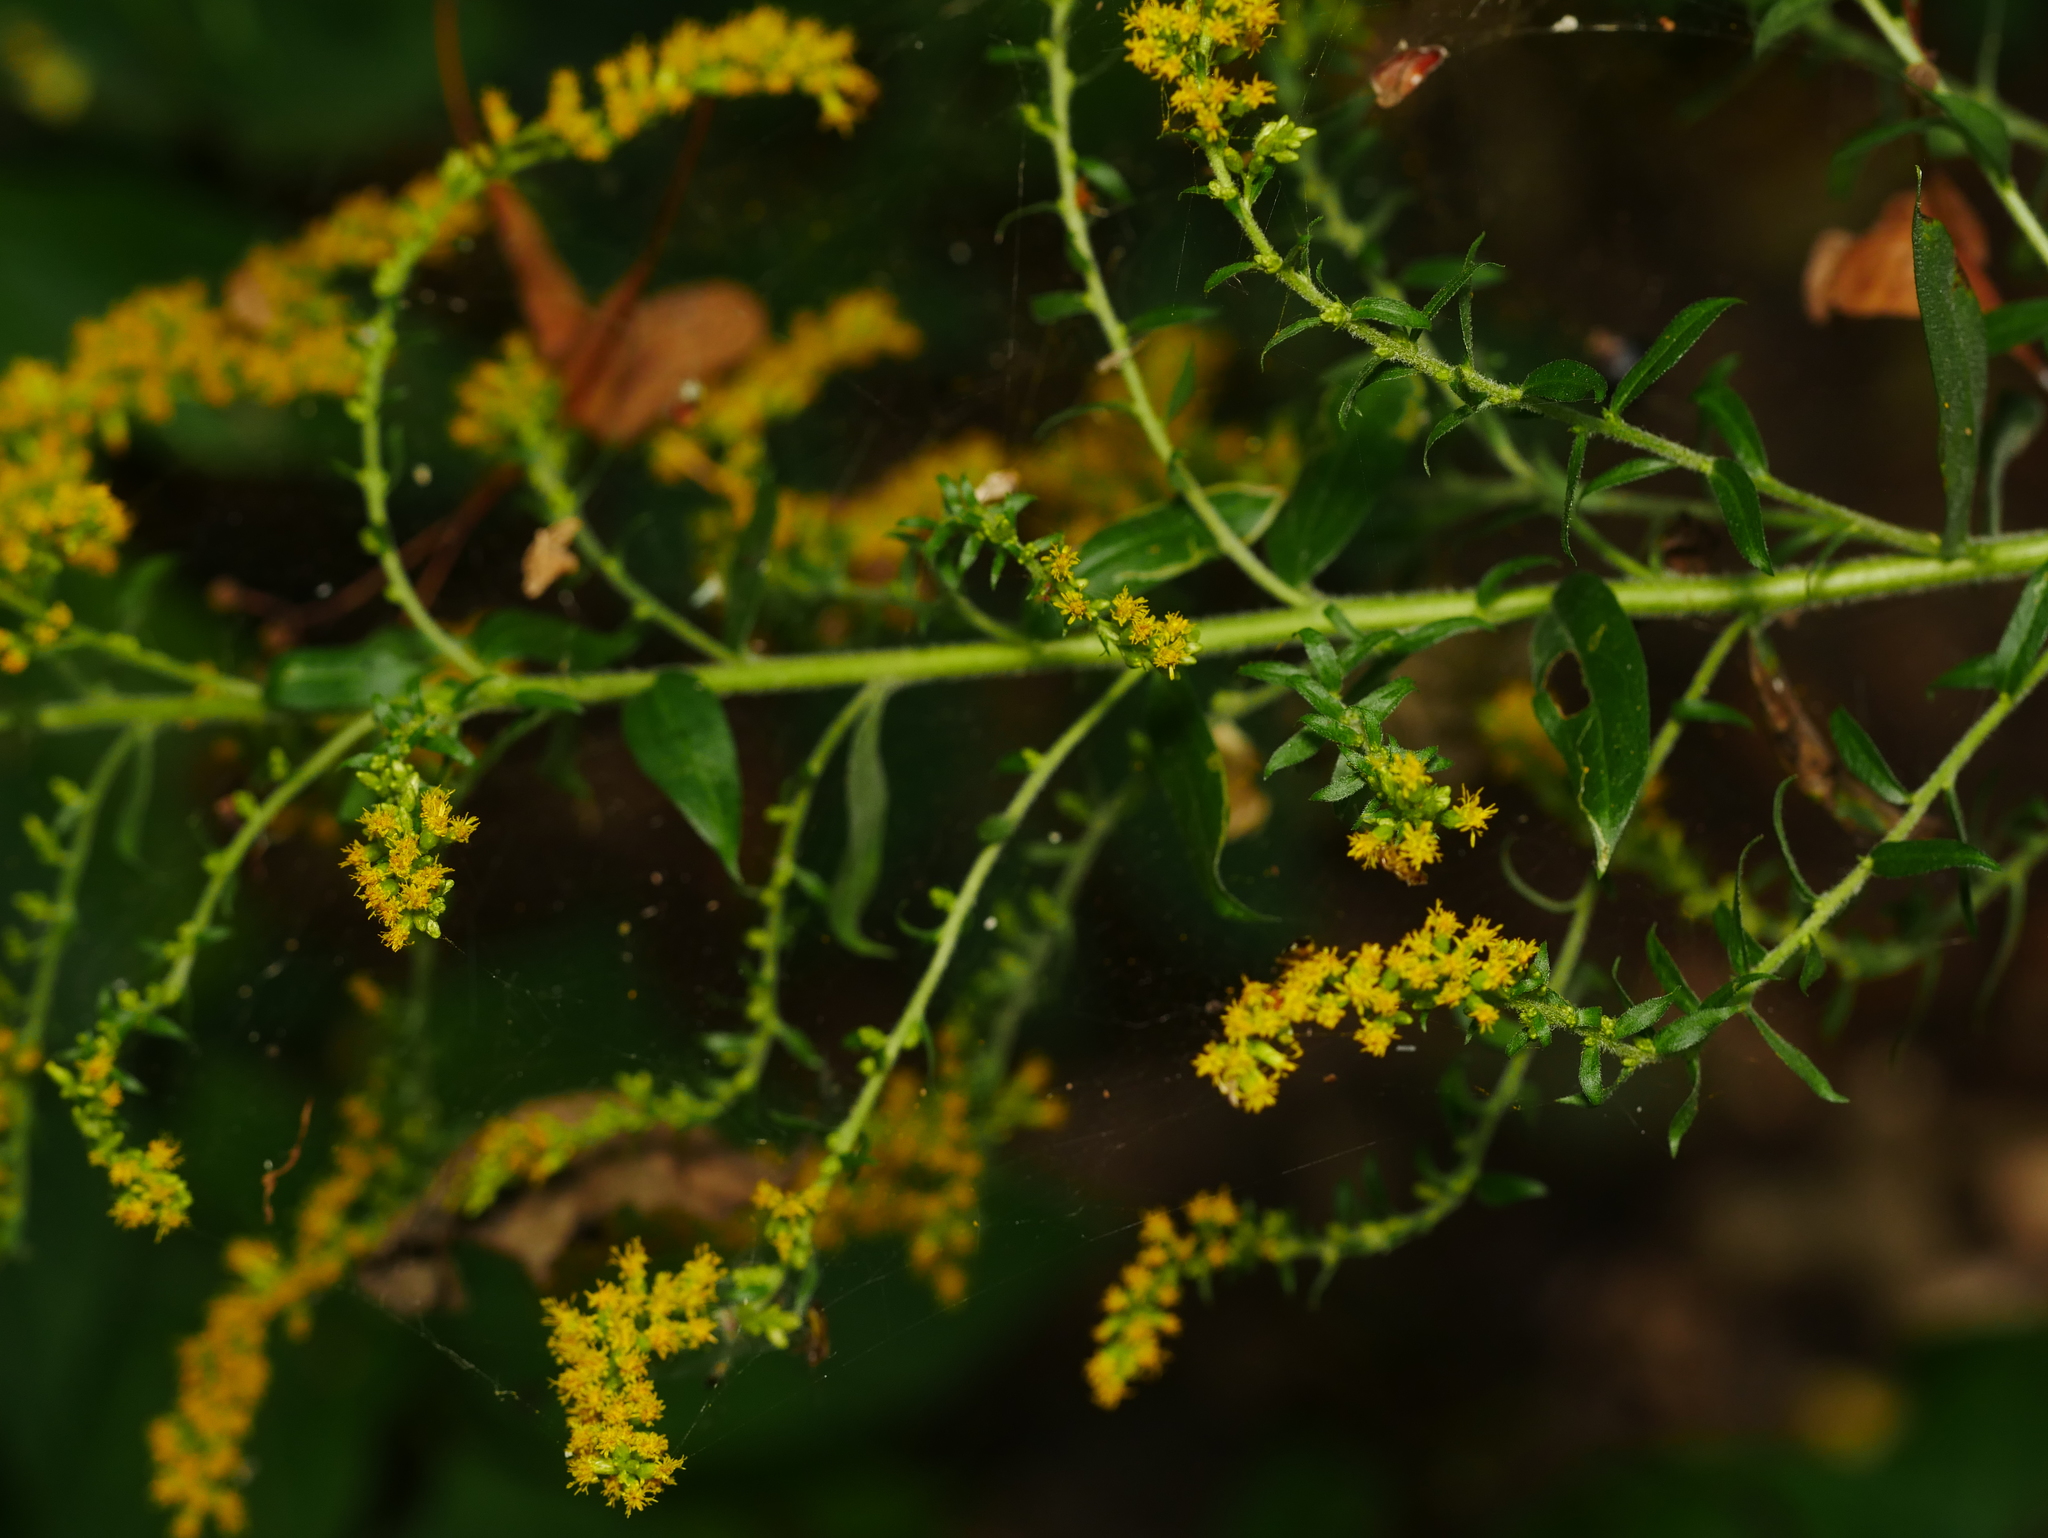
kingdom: Plantae
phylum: Tracheophyta
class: Magnoliopsida
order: Asterales
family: Asteraceae
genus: Solidago
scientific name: Solidago canadensis
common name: Canada goldenrod
